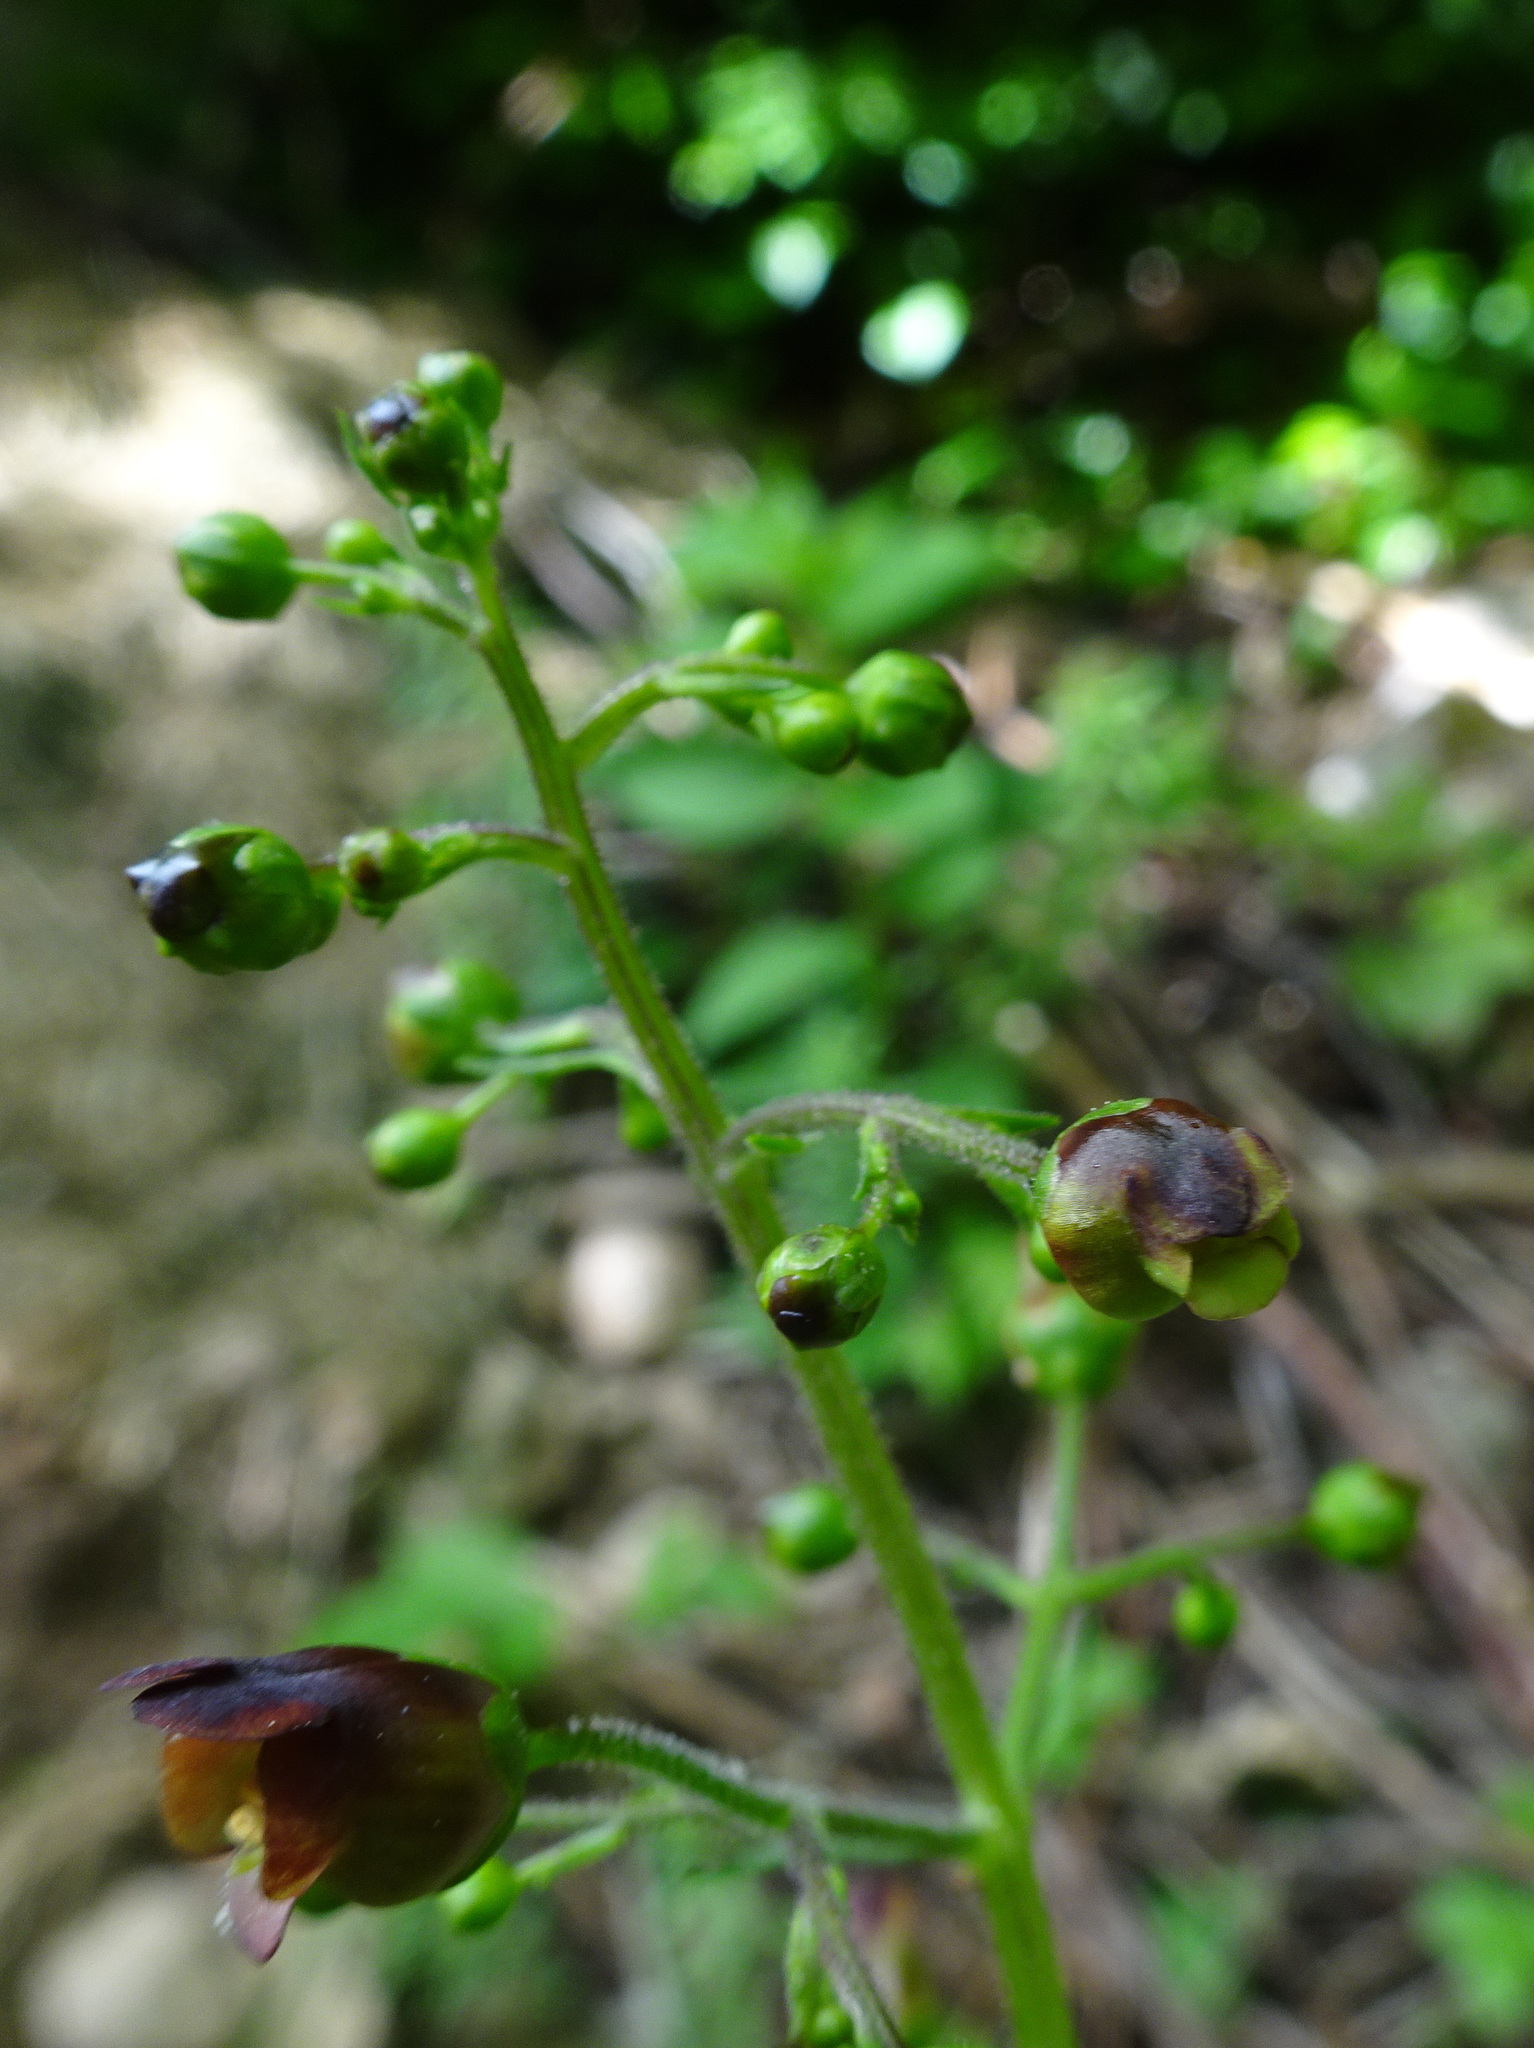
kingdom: Plantae
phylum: Tracheophyta
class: Magnoliopsida
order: Lamiales
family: Scrophulariaceae
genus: Scrophularia
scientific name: Scrophularia nodosa
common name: Common figwort
